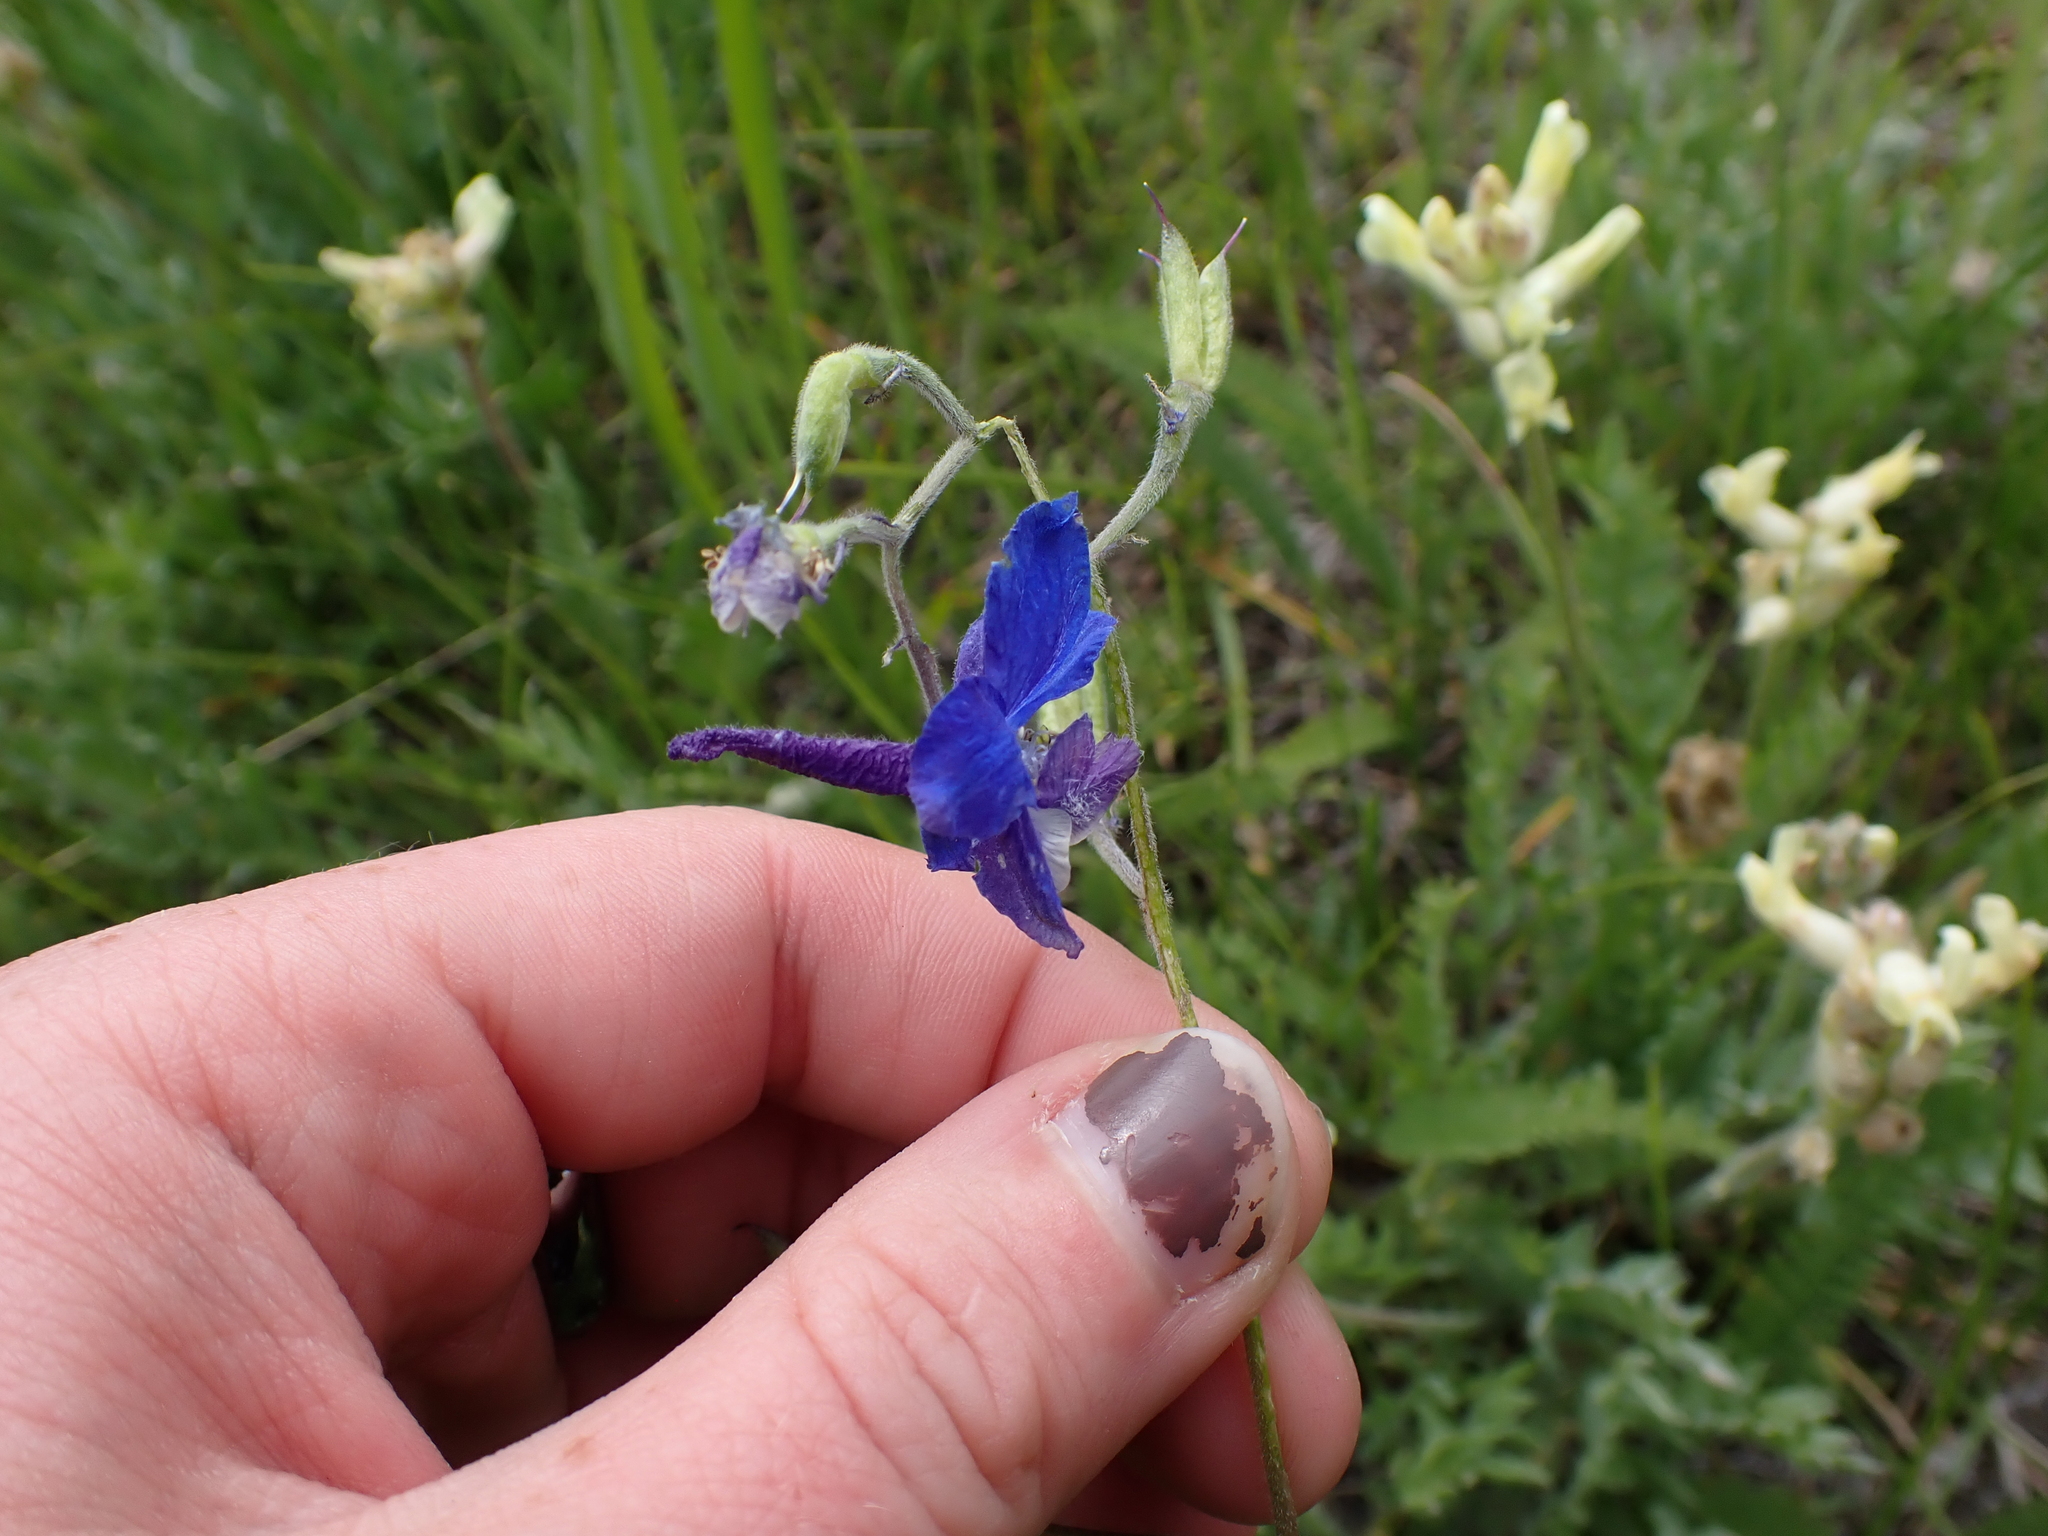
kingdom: Plantae
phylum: Tracheophyta
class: Magnoliopsida
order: Ranunculales
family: Ranunculaceae
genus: Delphinium
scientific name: Delphinium nuttallianum
